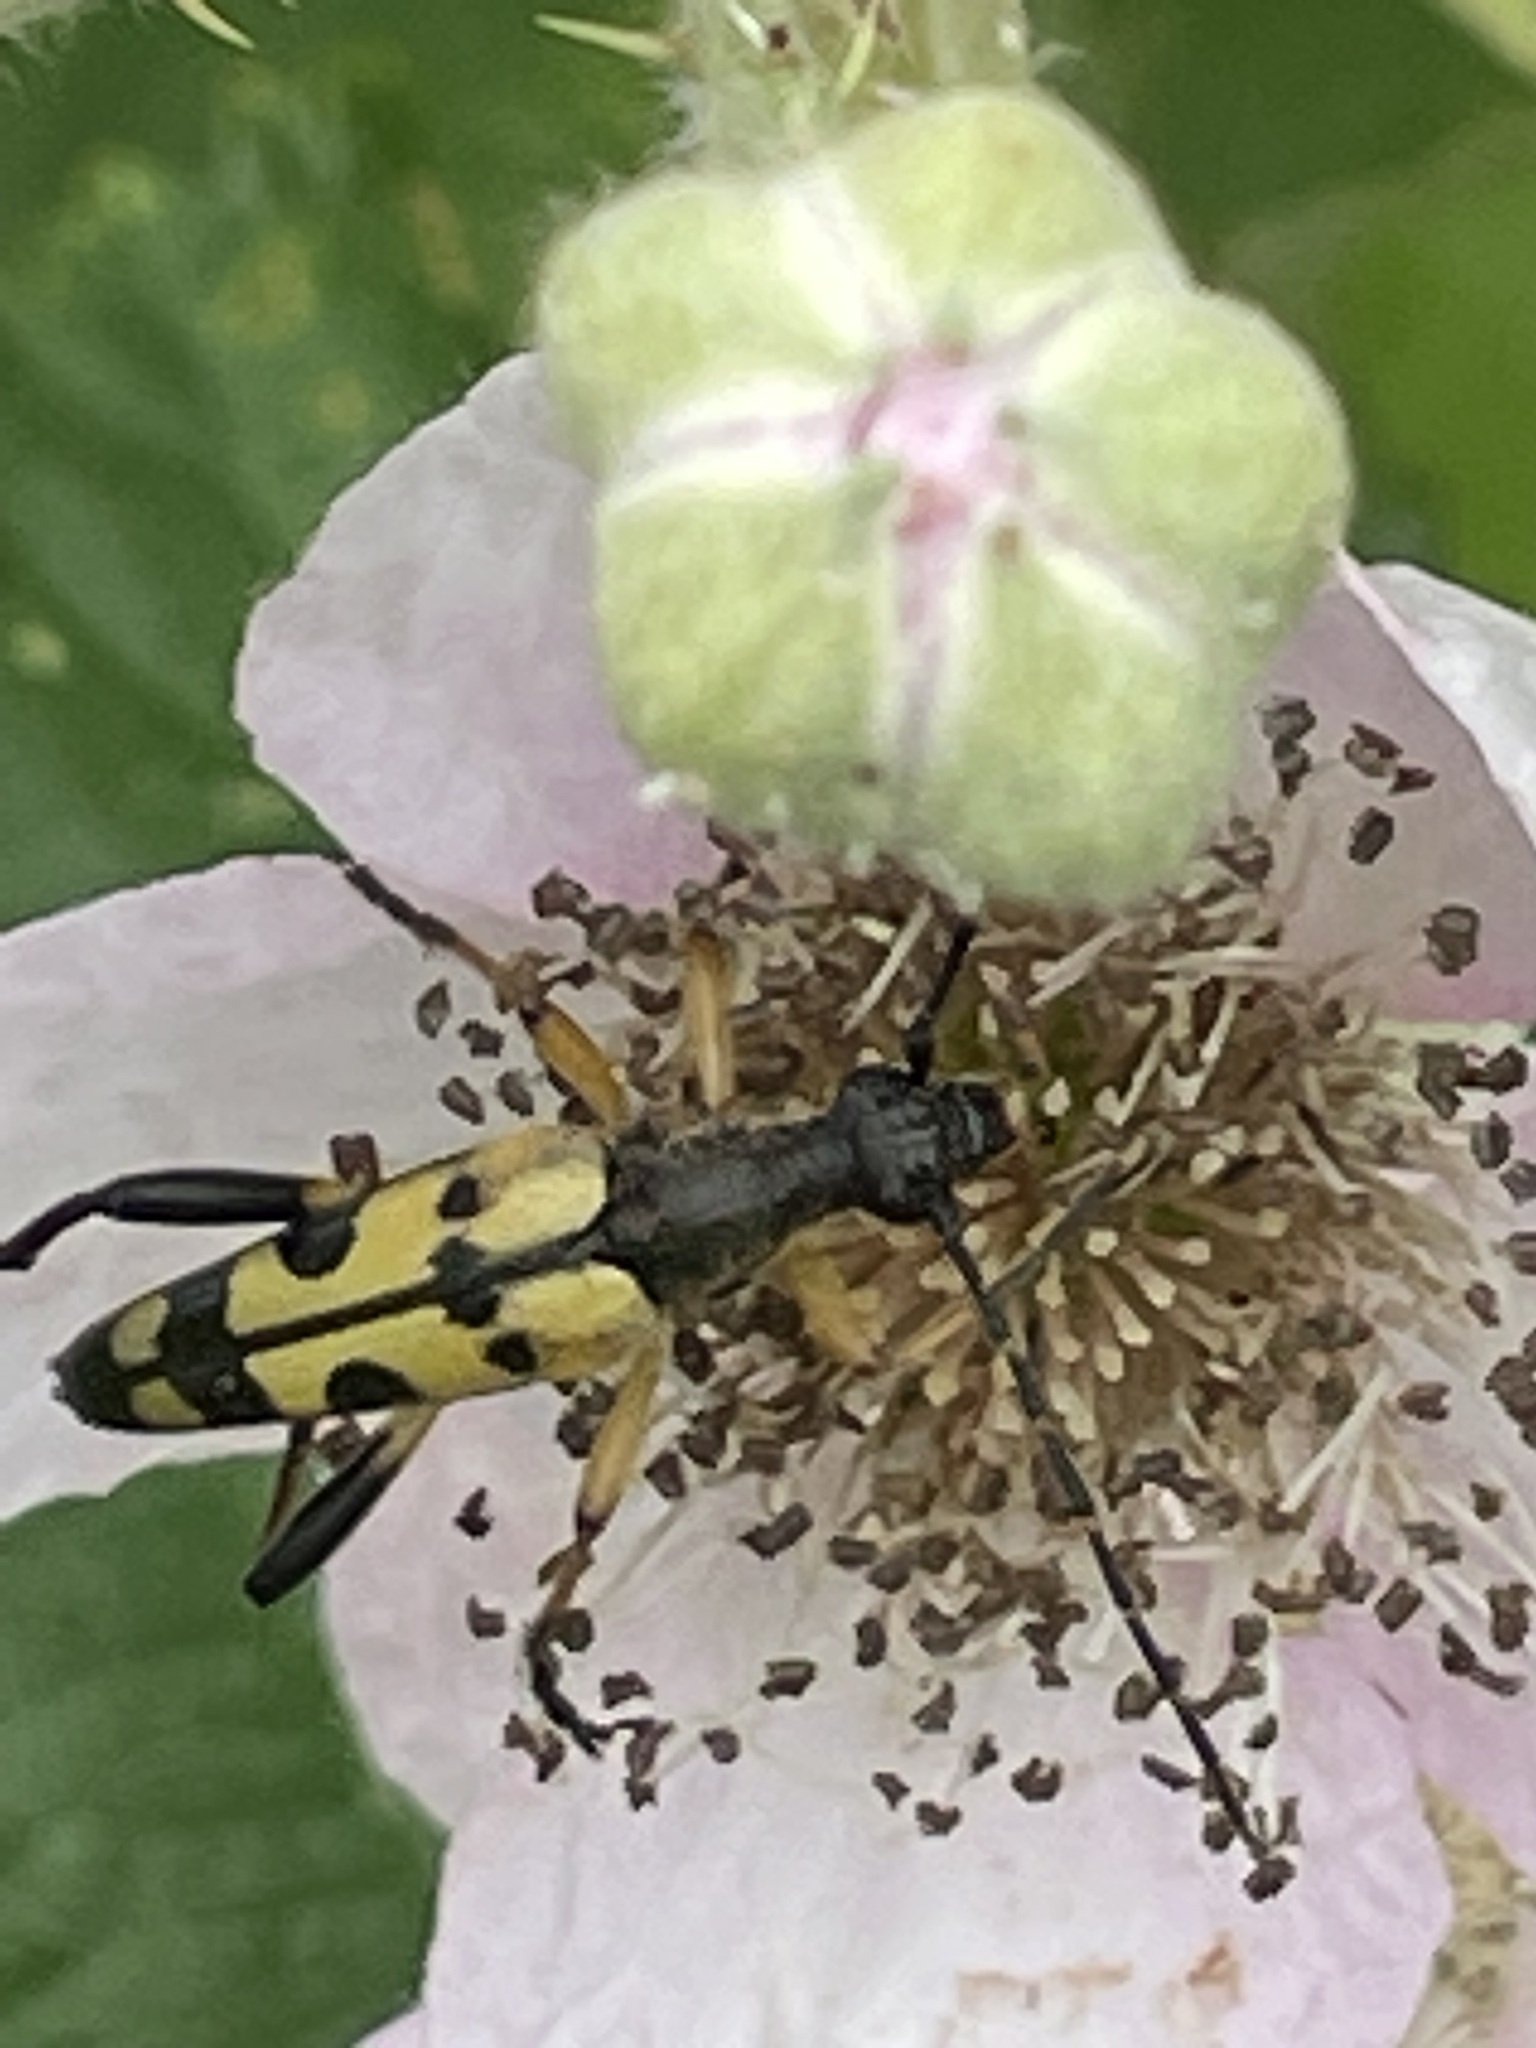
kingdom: Animalia
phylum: Arthropoda
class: Insecta
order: Coleoptera
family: Cerambycidae
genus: Rutpela
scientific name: Rutpela maculata
